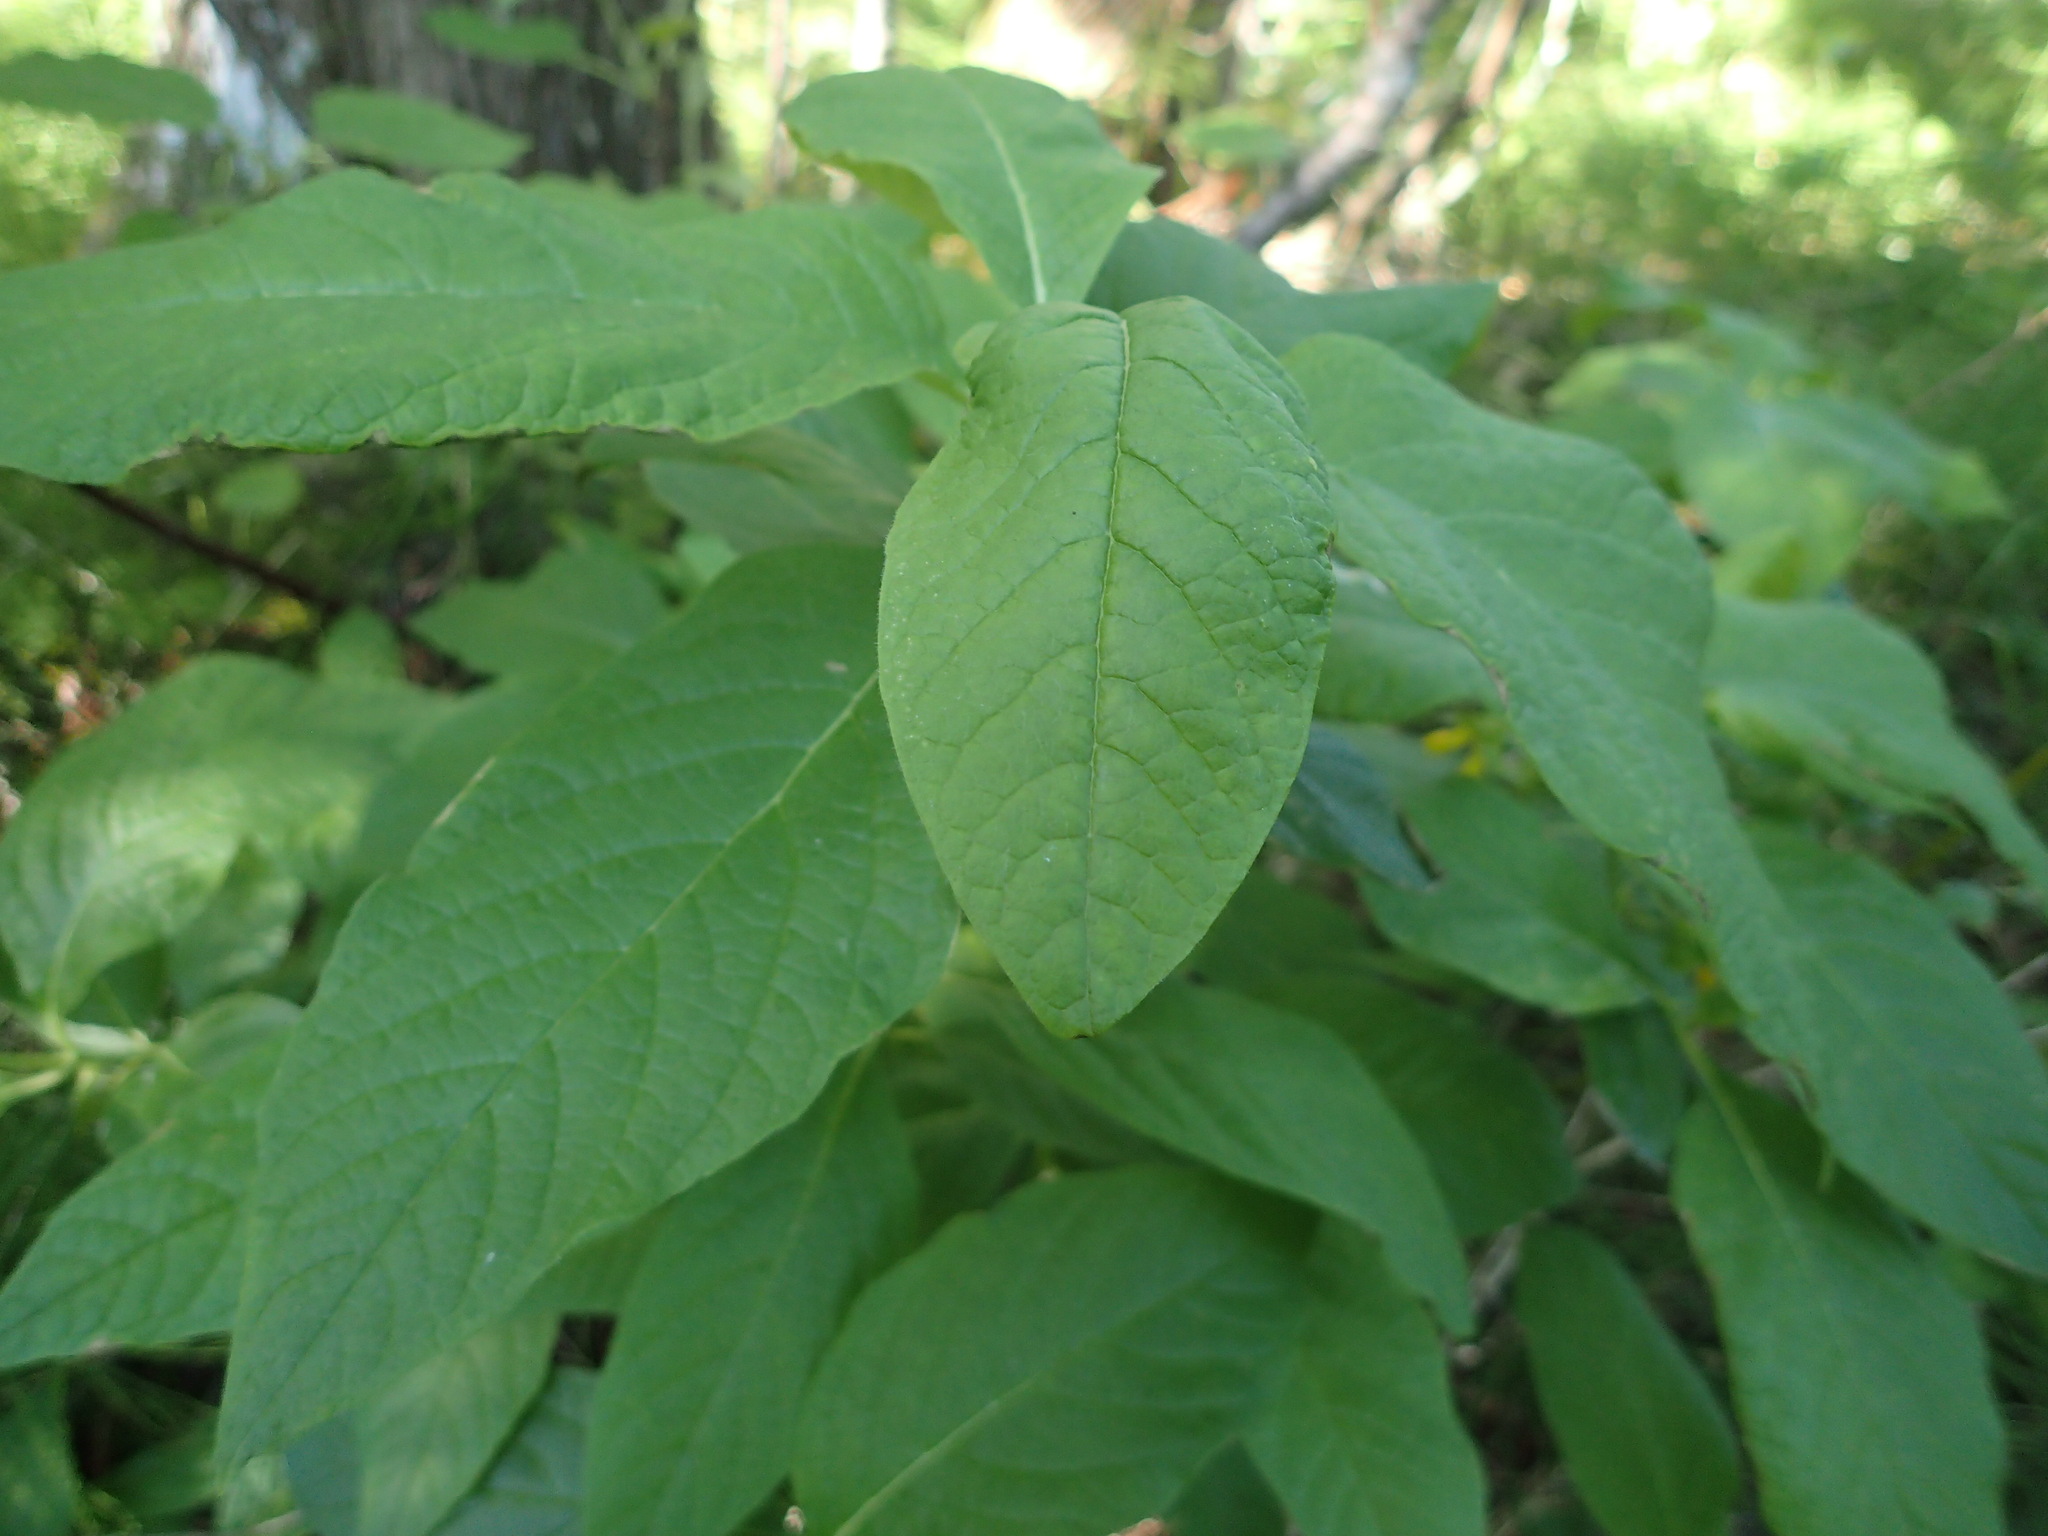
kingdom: Plantae
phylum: Tracheophyta
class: Magnoliopsida
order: Dipsacales
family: Caprifoliaceae
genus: Lonicera
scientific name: Lonicera involucrata
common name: Californian honeysuckle
